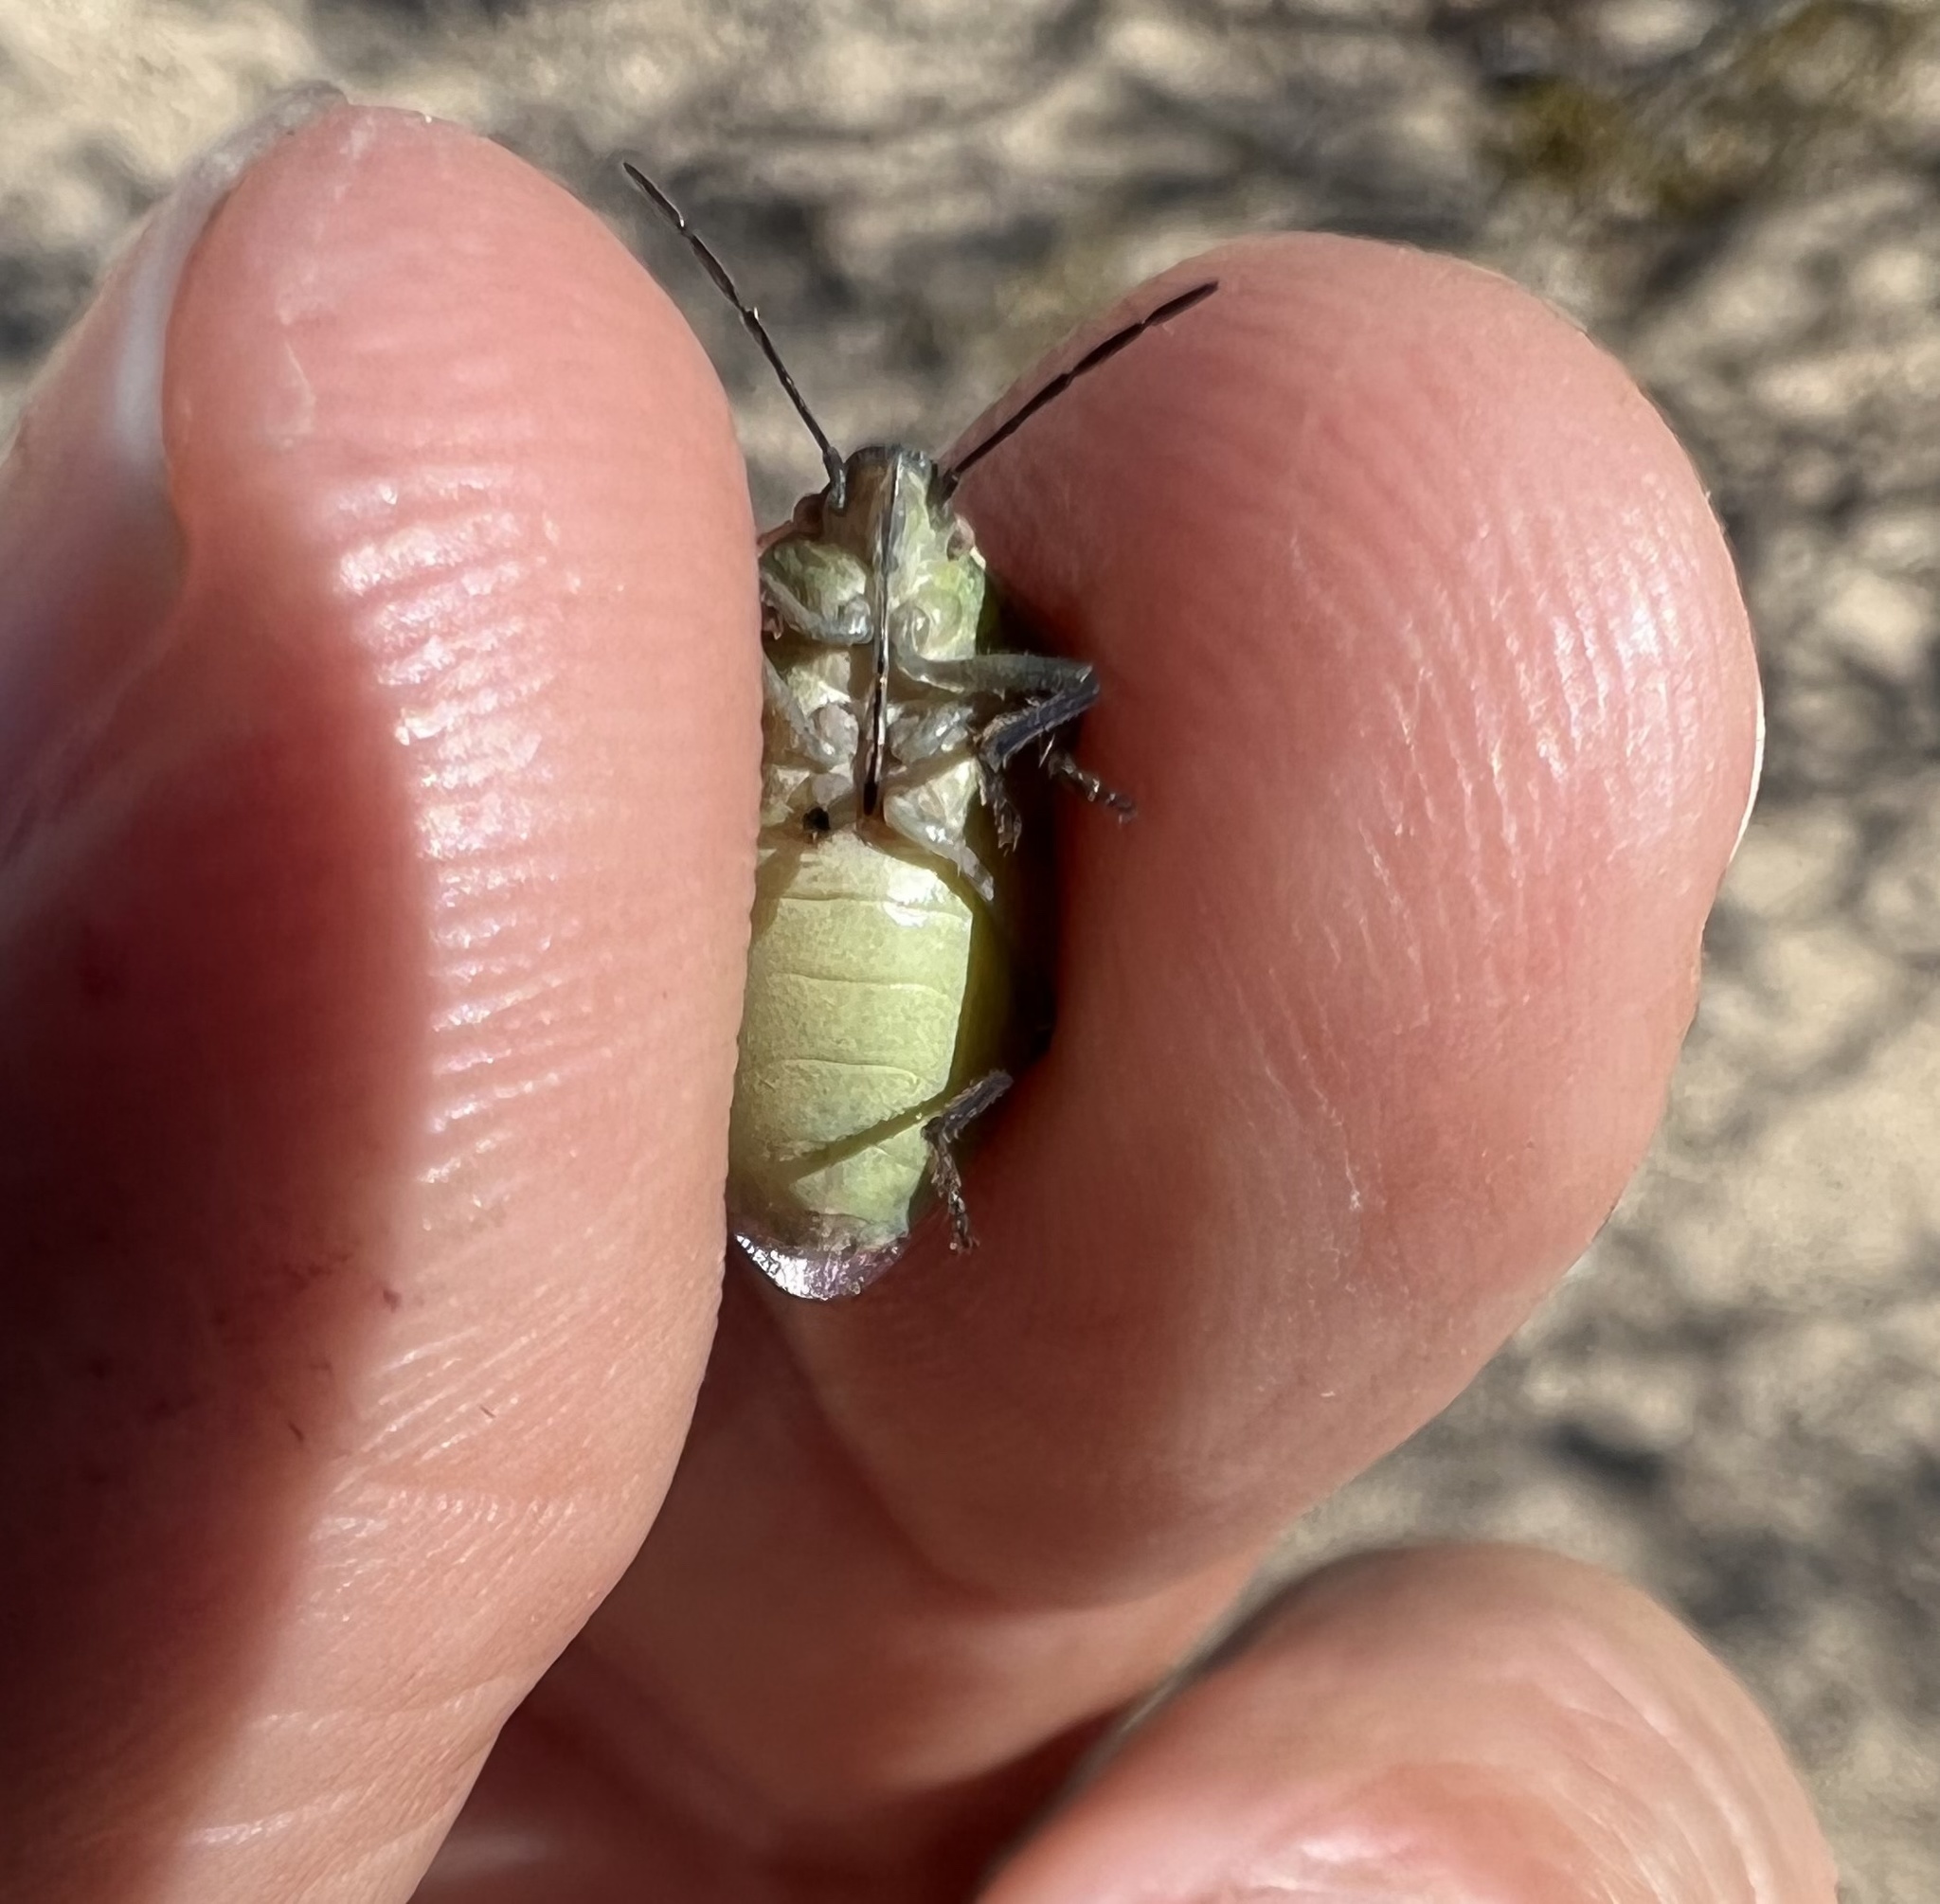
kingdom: Animalia
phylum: Arthropoda
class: Insecta
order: Hemiptera
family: Pentatomidae
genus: Chlorochroa
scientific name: Chlorochroa sayi
